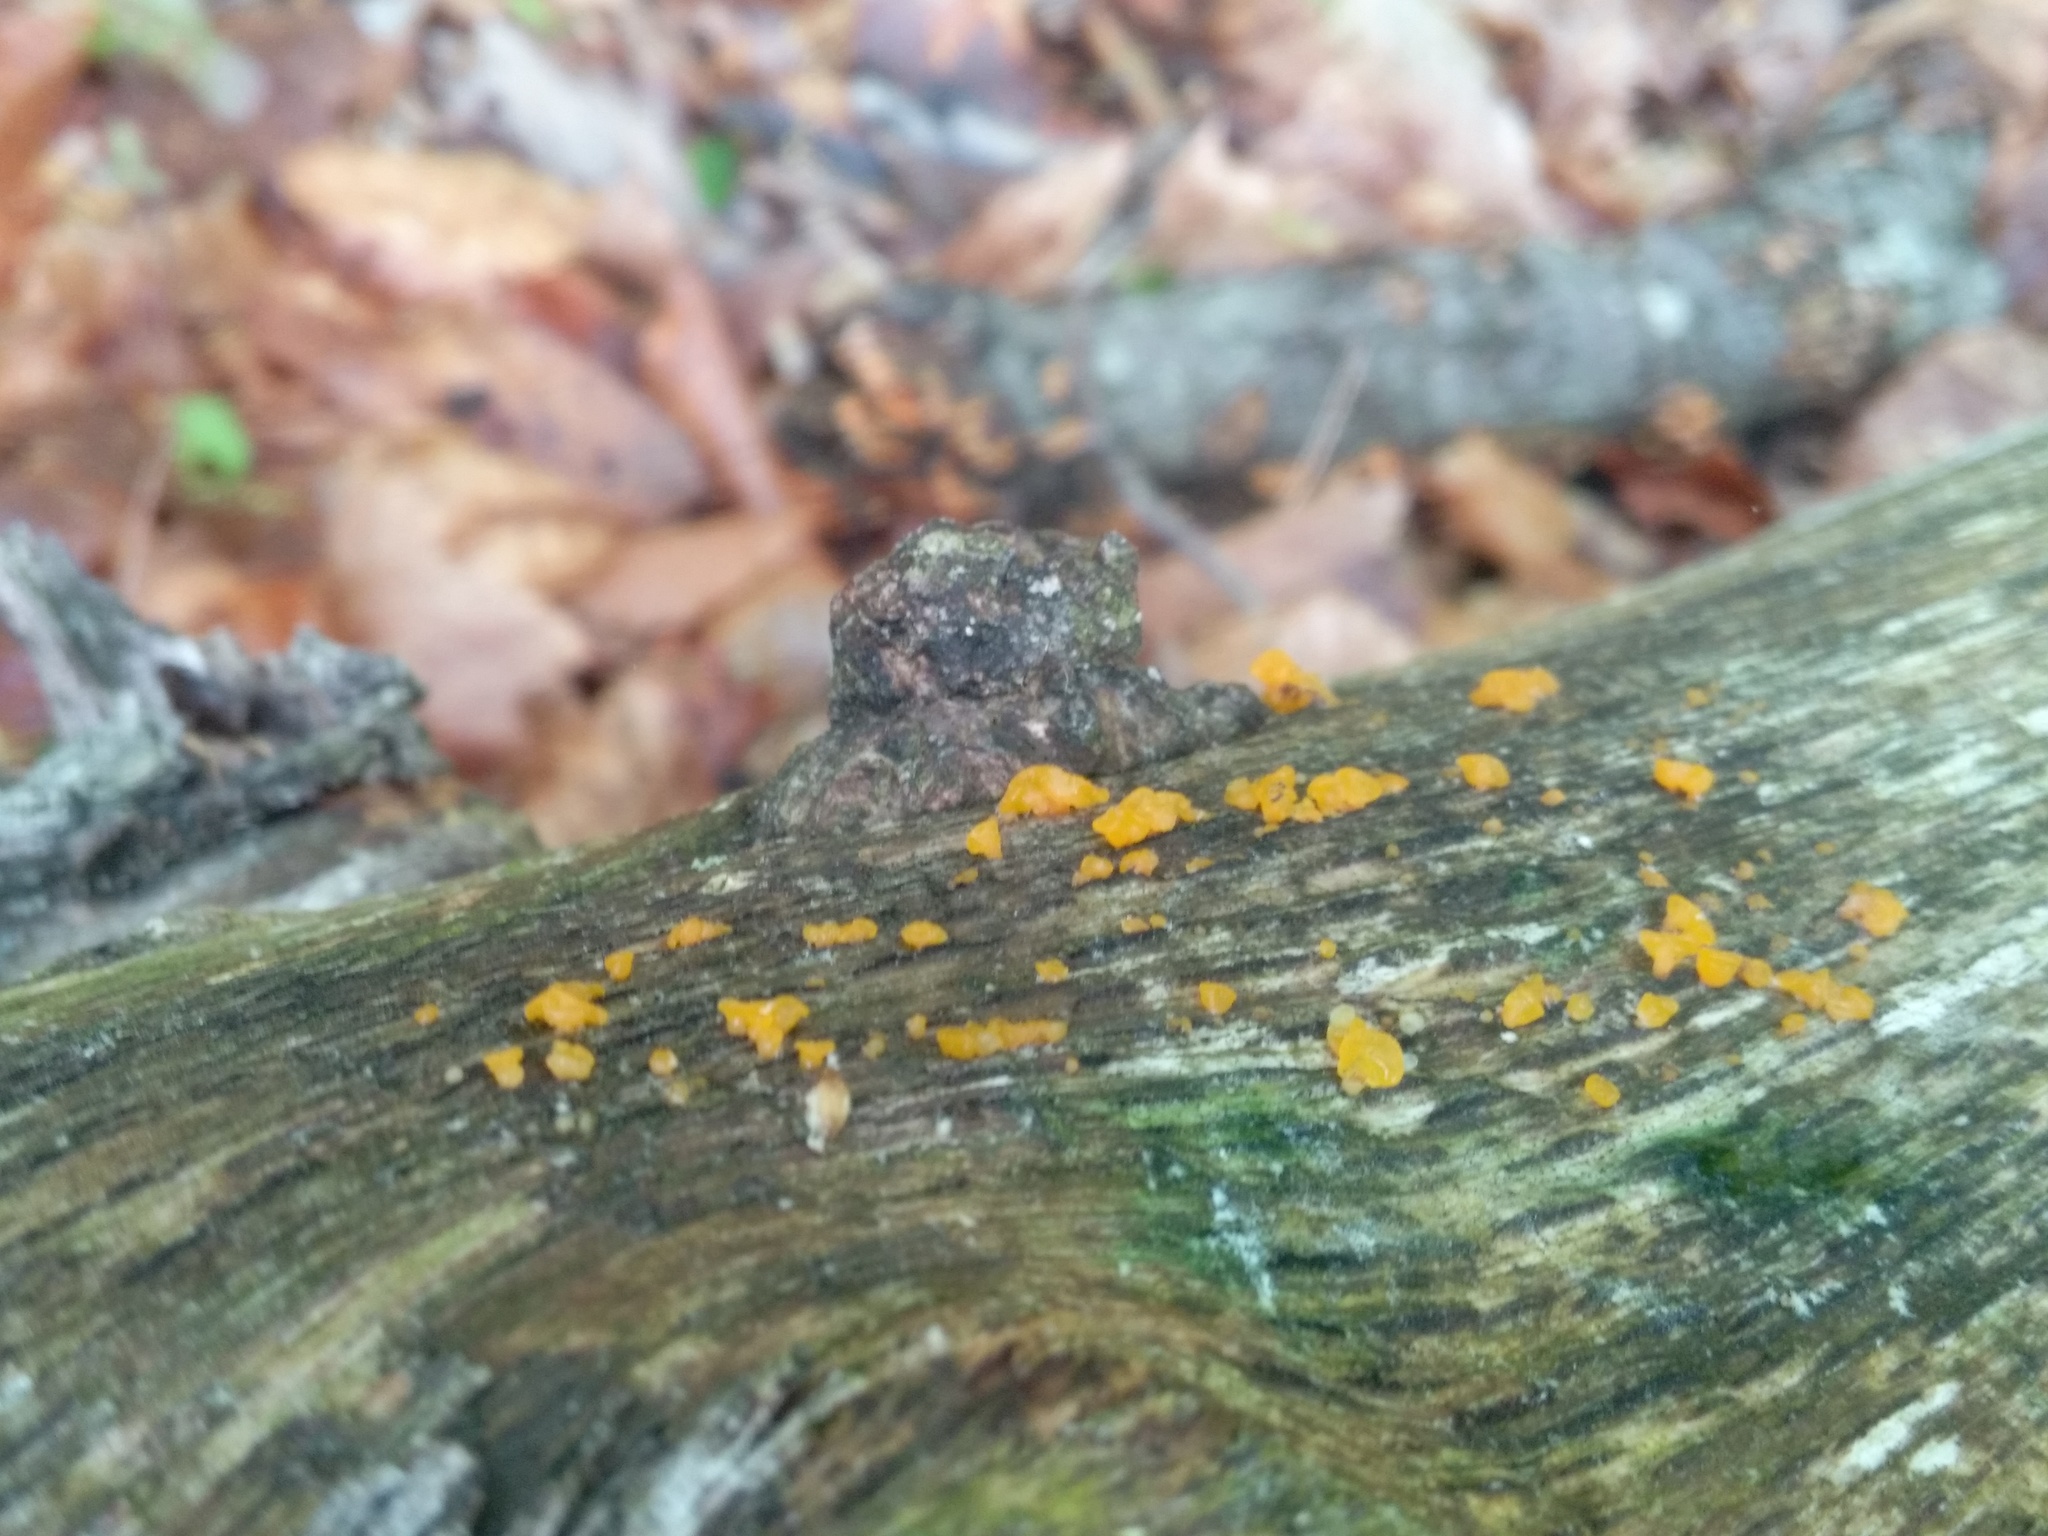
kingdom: Fungi
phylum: Basidiomycota
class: Dacrymycetes
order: Dacrymycetales
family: Dacrymycetaceae
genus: Dacrymyces
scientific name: Dacrymyces chrysospermus
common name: Orange jelly spot
